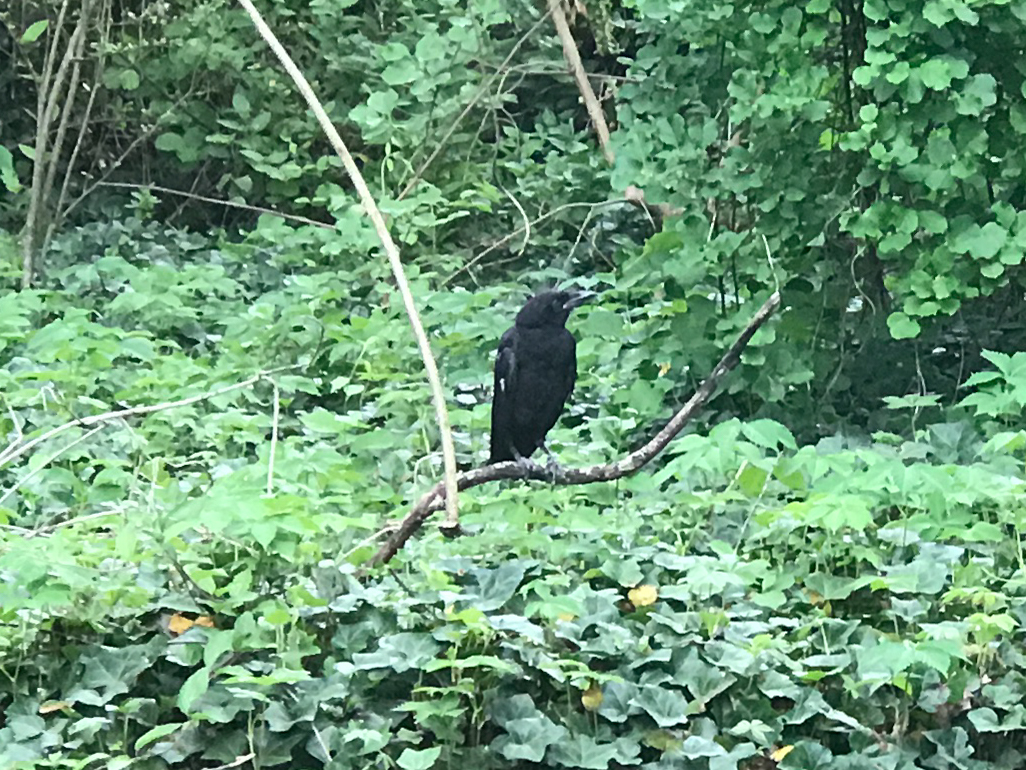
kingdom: Animalia
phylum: Chordata
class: Aves
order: Passeriformes
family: Corvidae
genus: Corvus
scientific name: Corvus brachyrhynchos
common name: American crow
